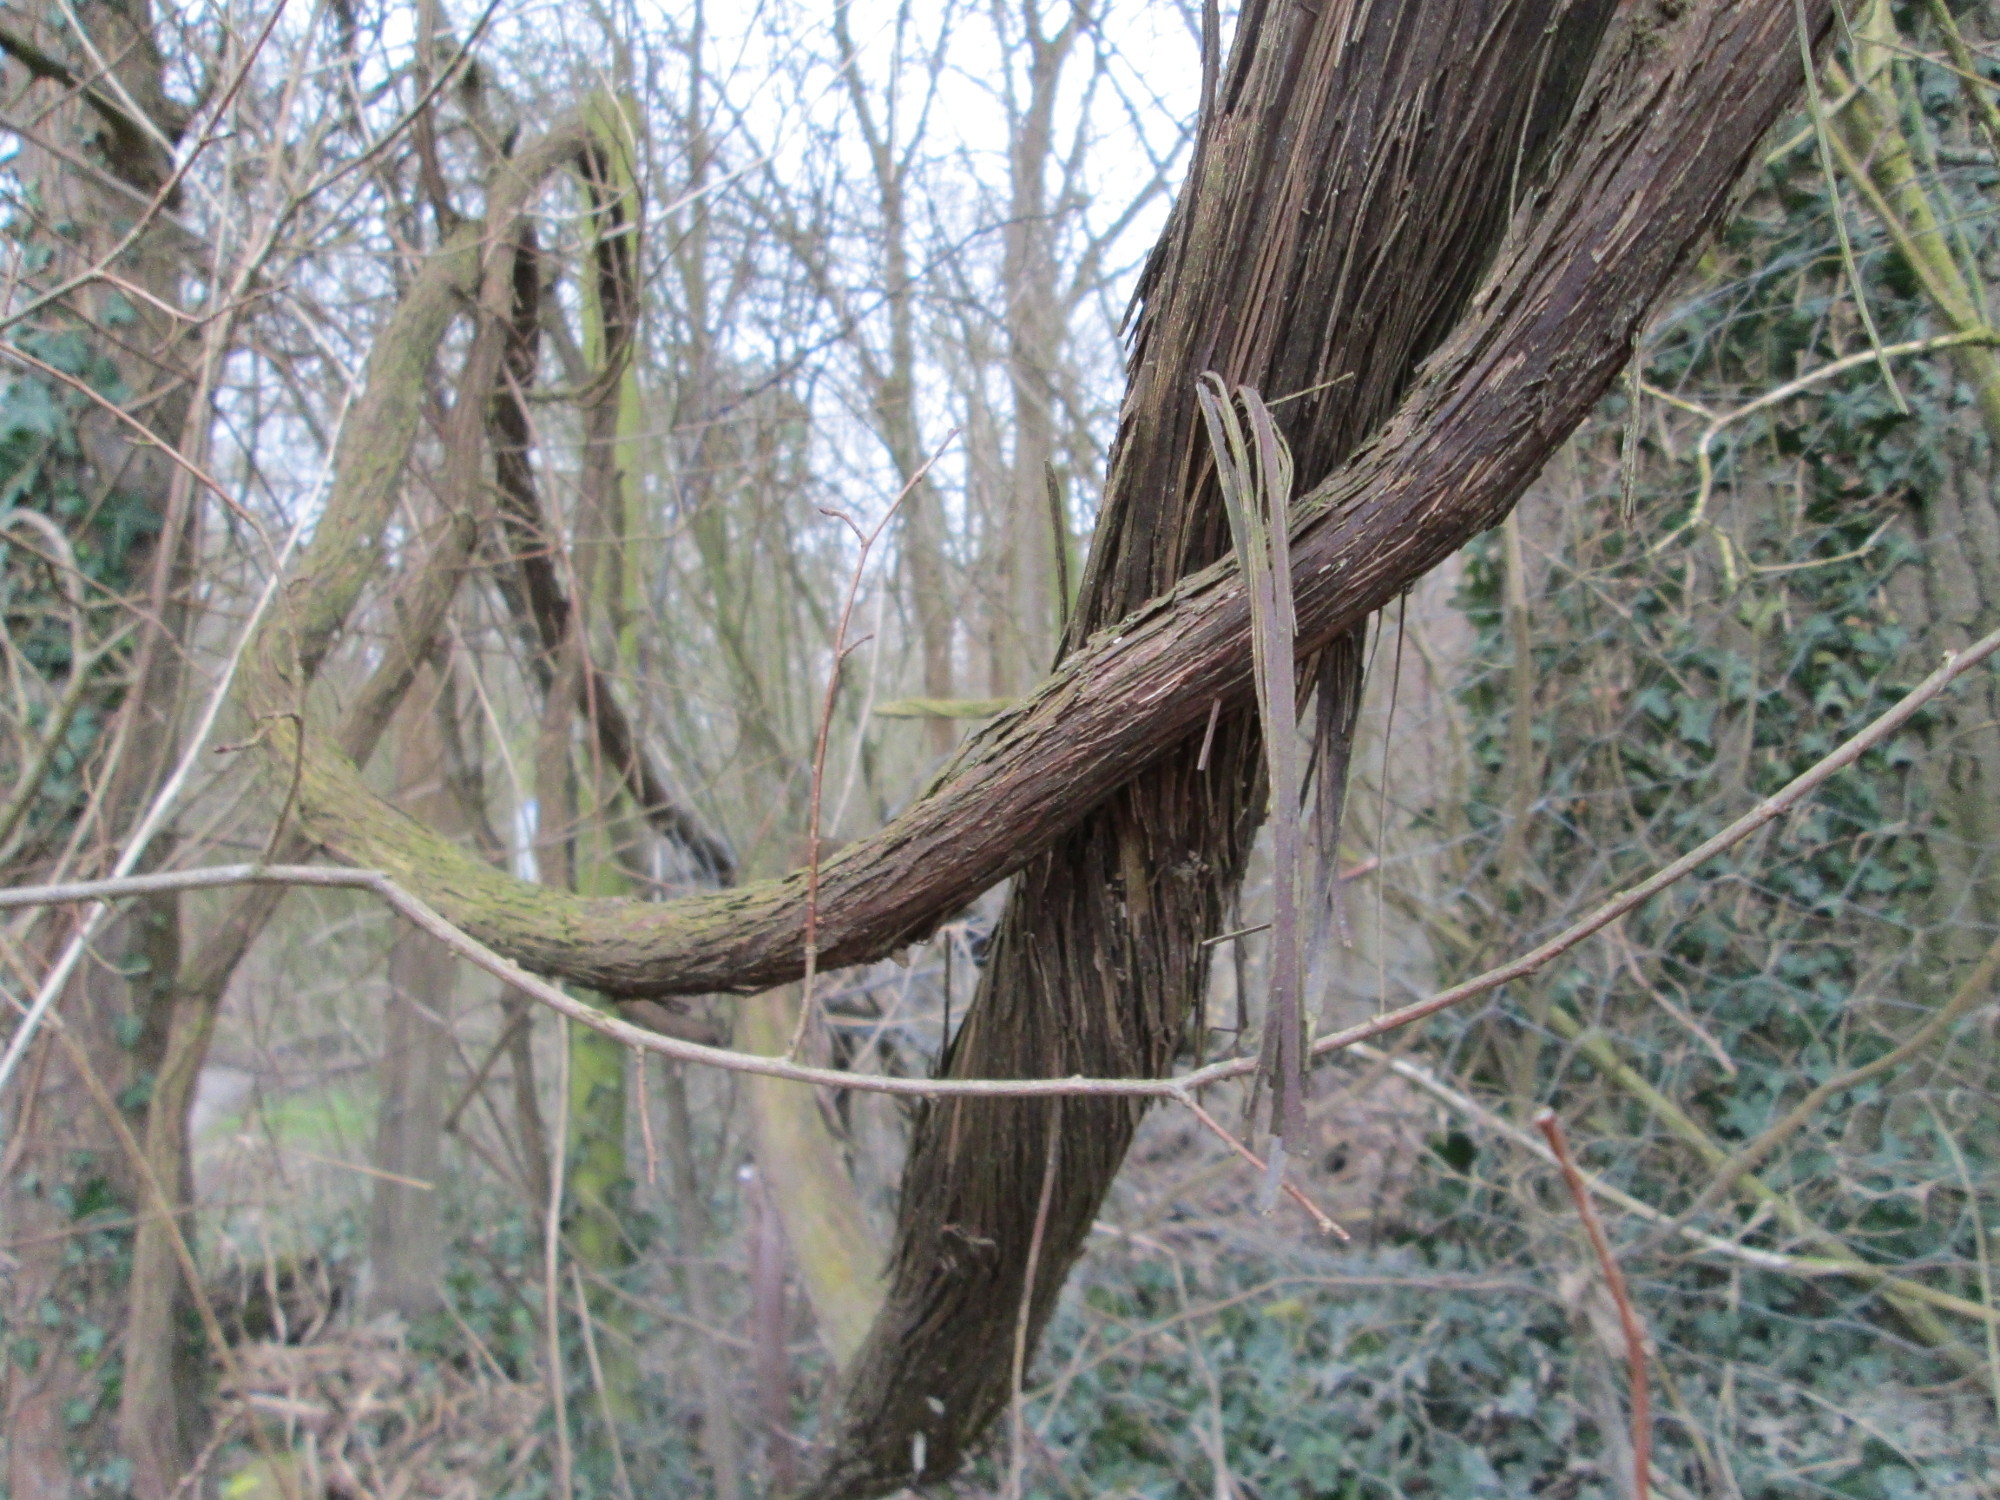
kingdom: Plantae
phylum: Tracheophyta
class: Magnoliopsida
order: Vitales
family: Vitaceae
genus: Vitis
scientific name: Vitis gmelinii
